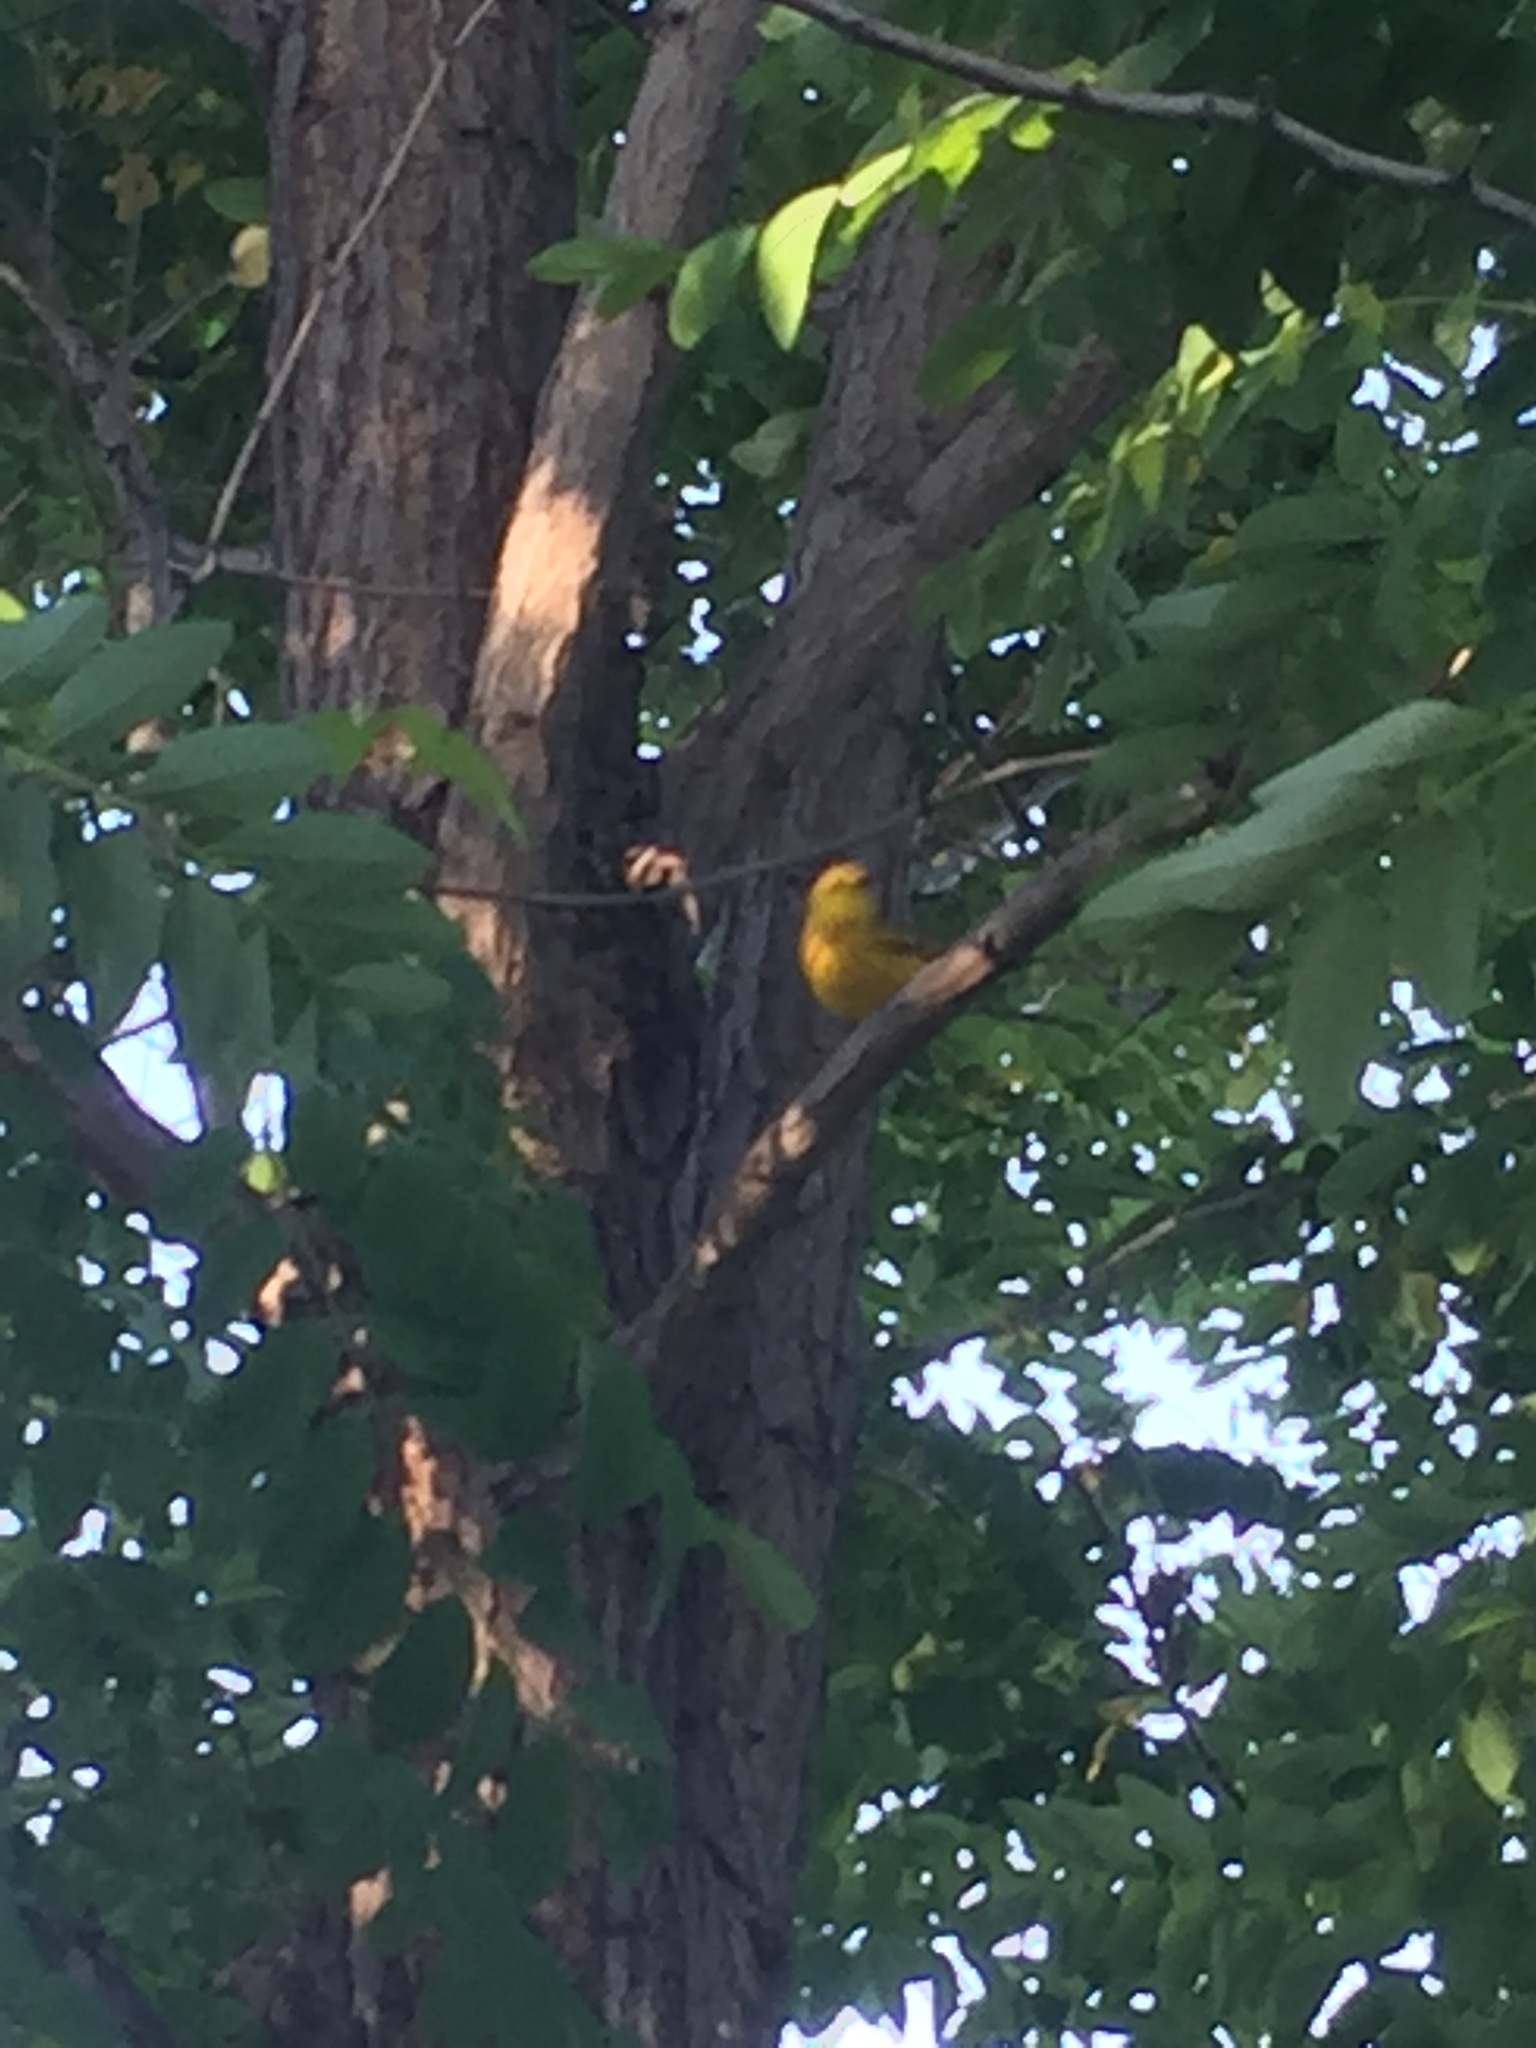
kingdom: Animalia
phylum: Chordata
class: Aves
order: Passeriformes
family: Parulidae
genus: Setophaga
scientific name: Setophaga petechia
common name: Yellow warbler
